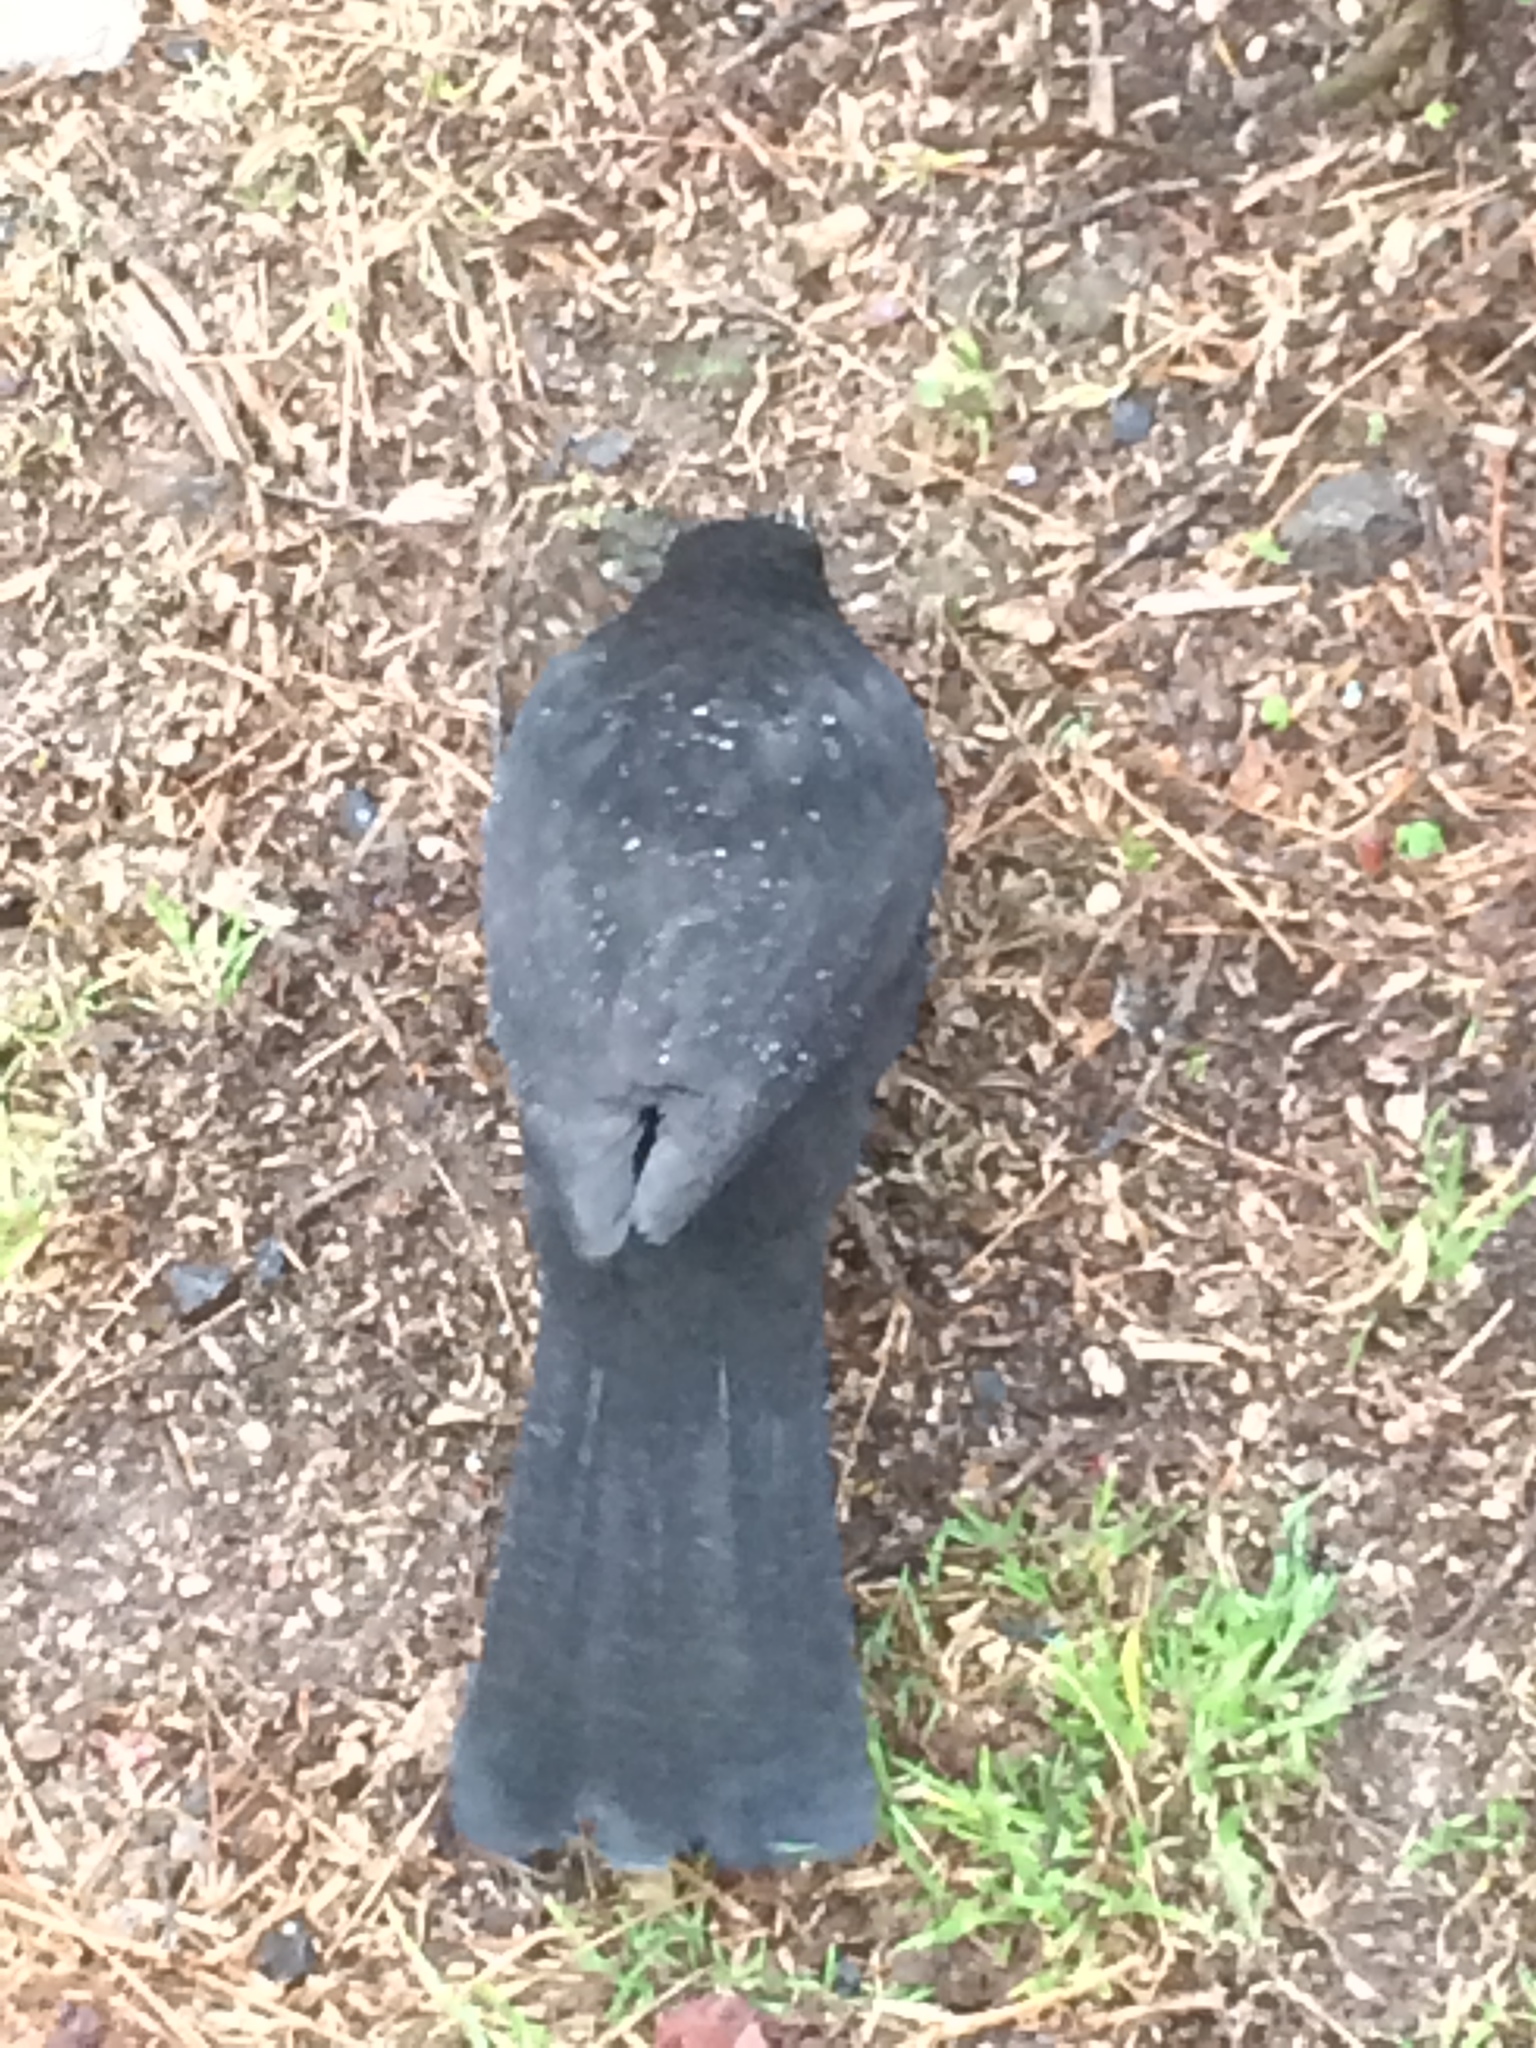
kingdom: Animalia
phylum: Chordata
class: Aves
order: Passeriformes
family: Turdidae
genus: Turdus
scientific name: Turdus merula
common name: Common blackbird
